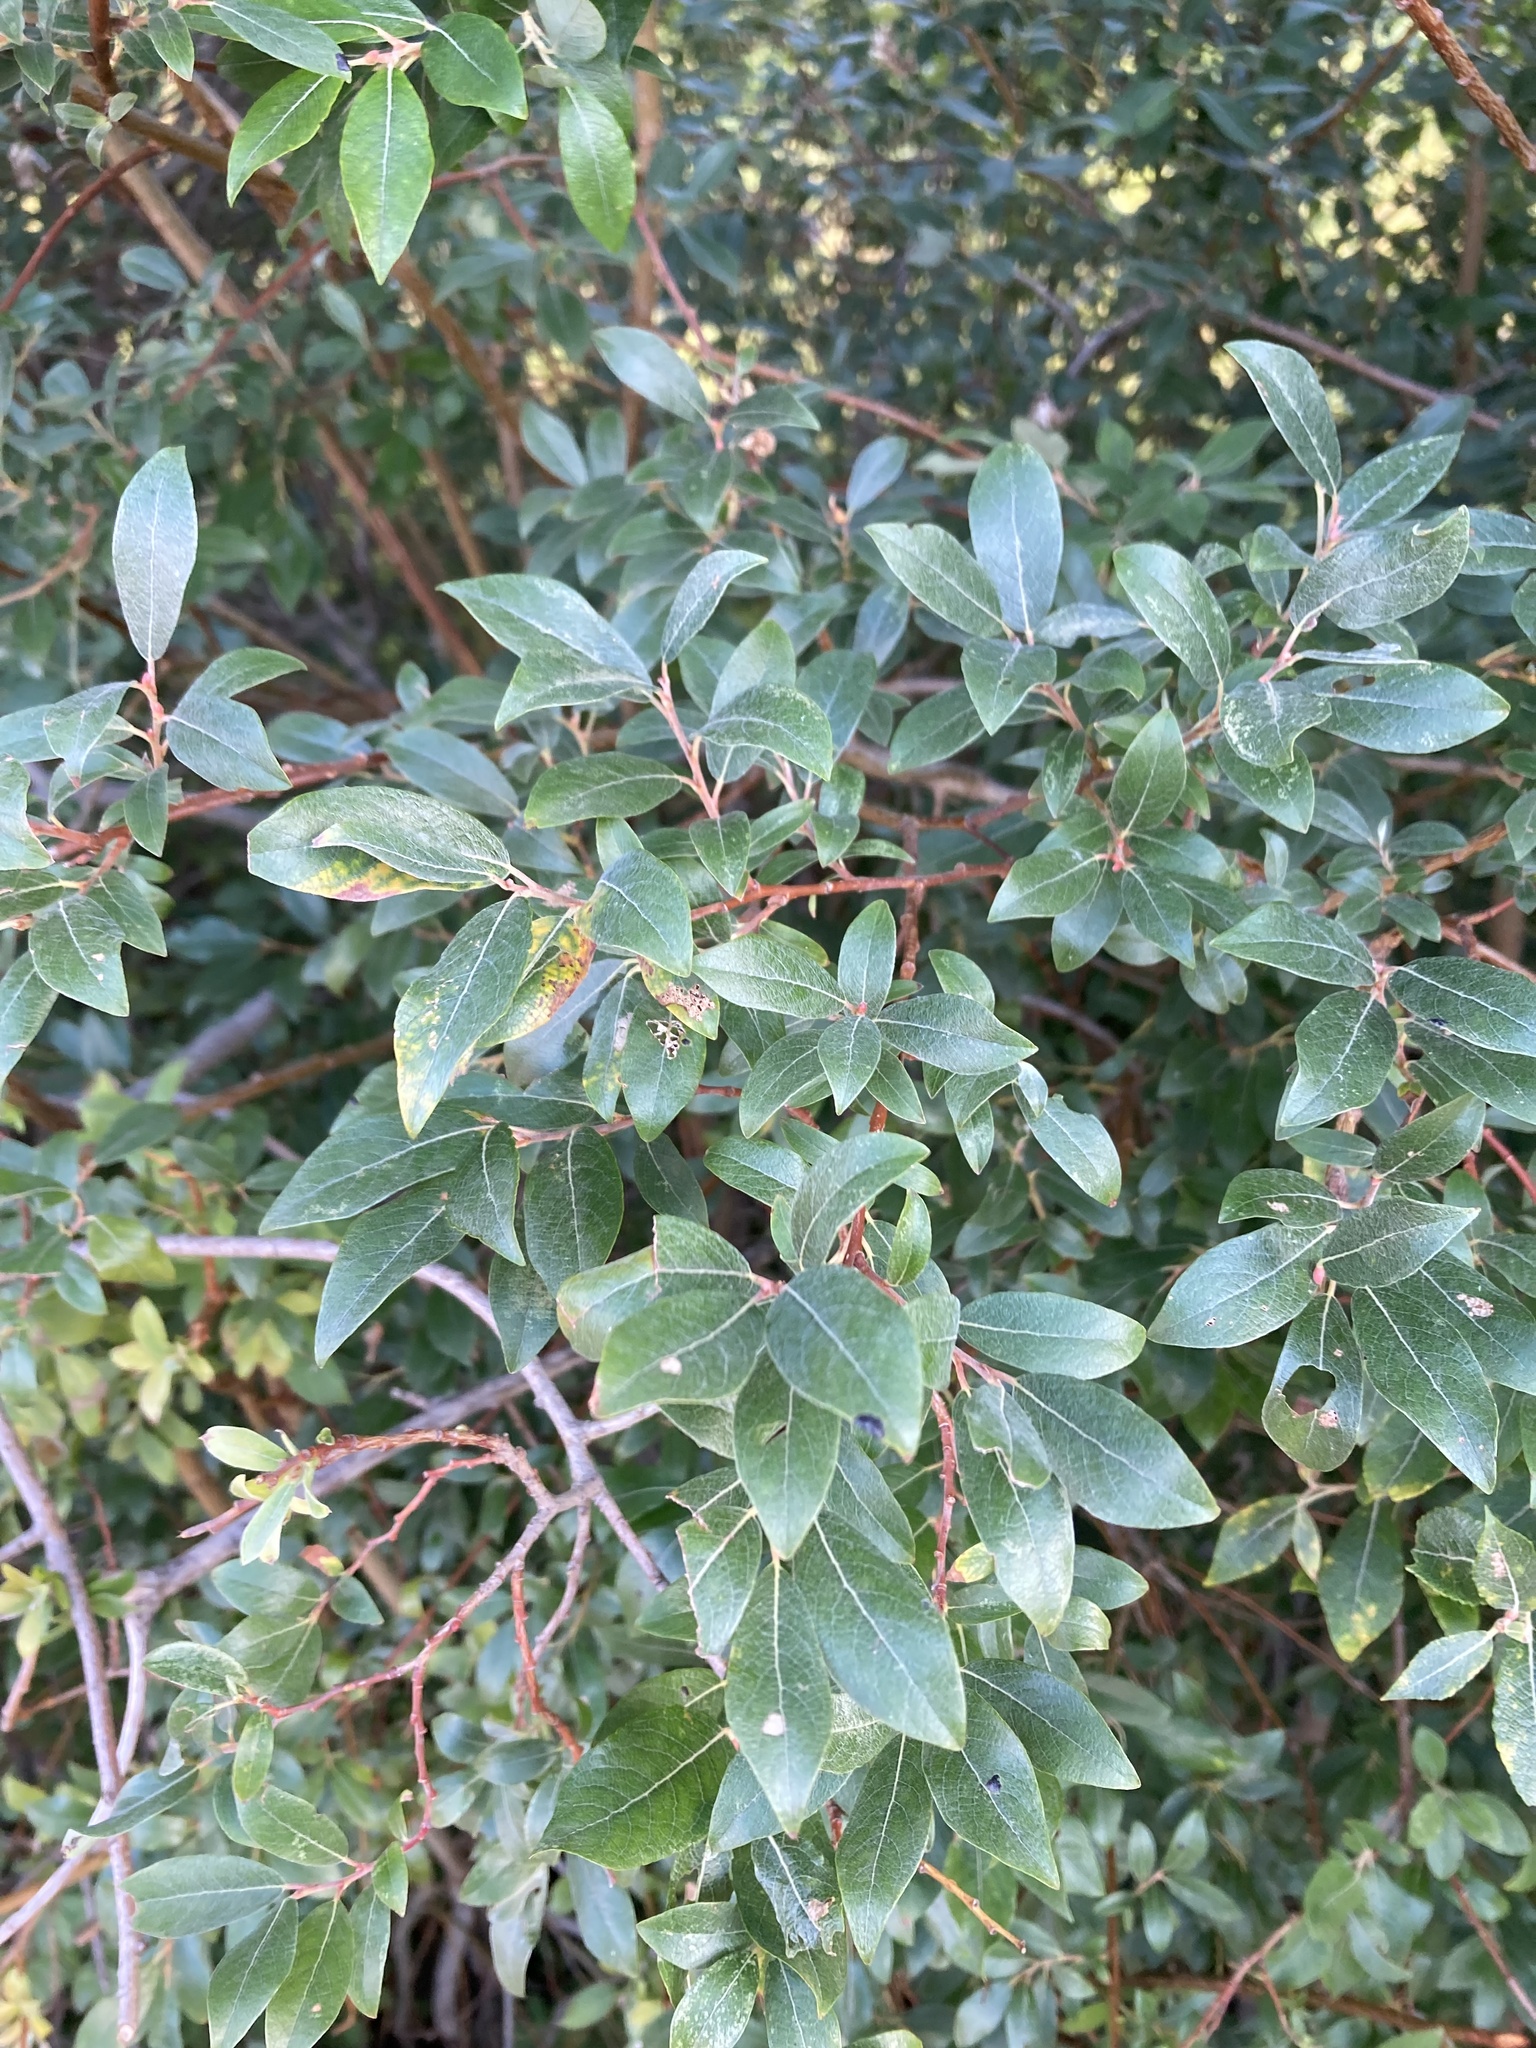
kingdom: Plantae
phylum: Tracheophyta
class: Magnoliopsida
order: Malpighiales
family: Salicaceae
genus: Salix
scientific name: Salix bebbiana
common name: Bebb's willow
